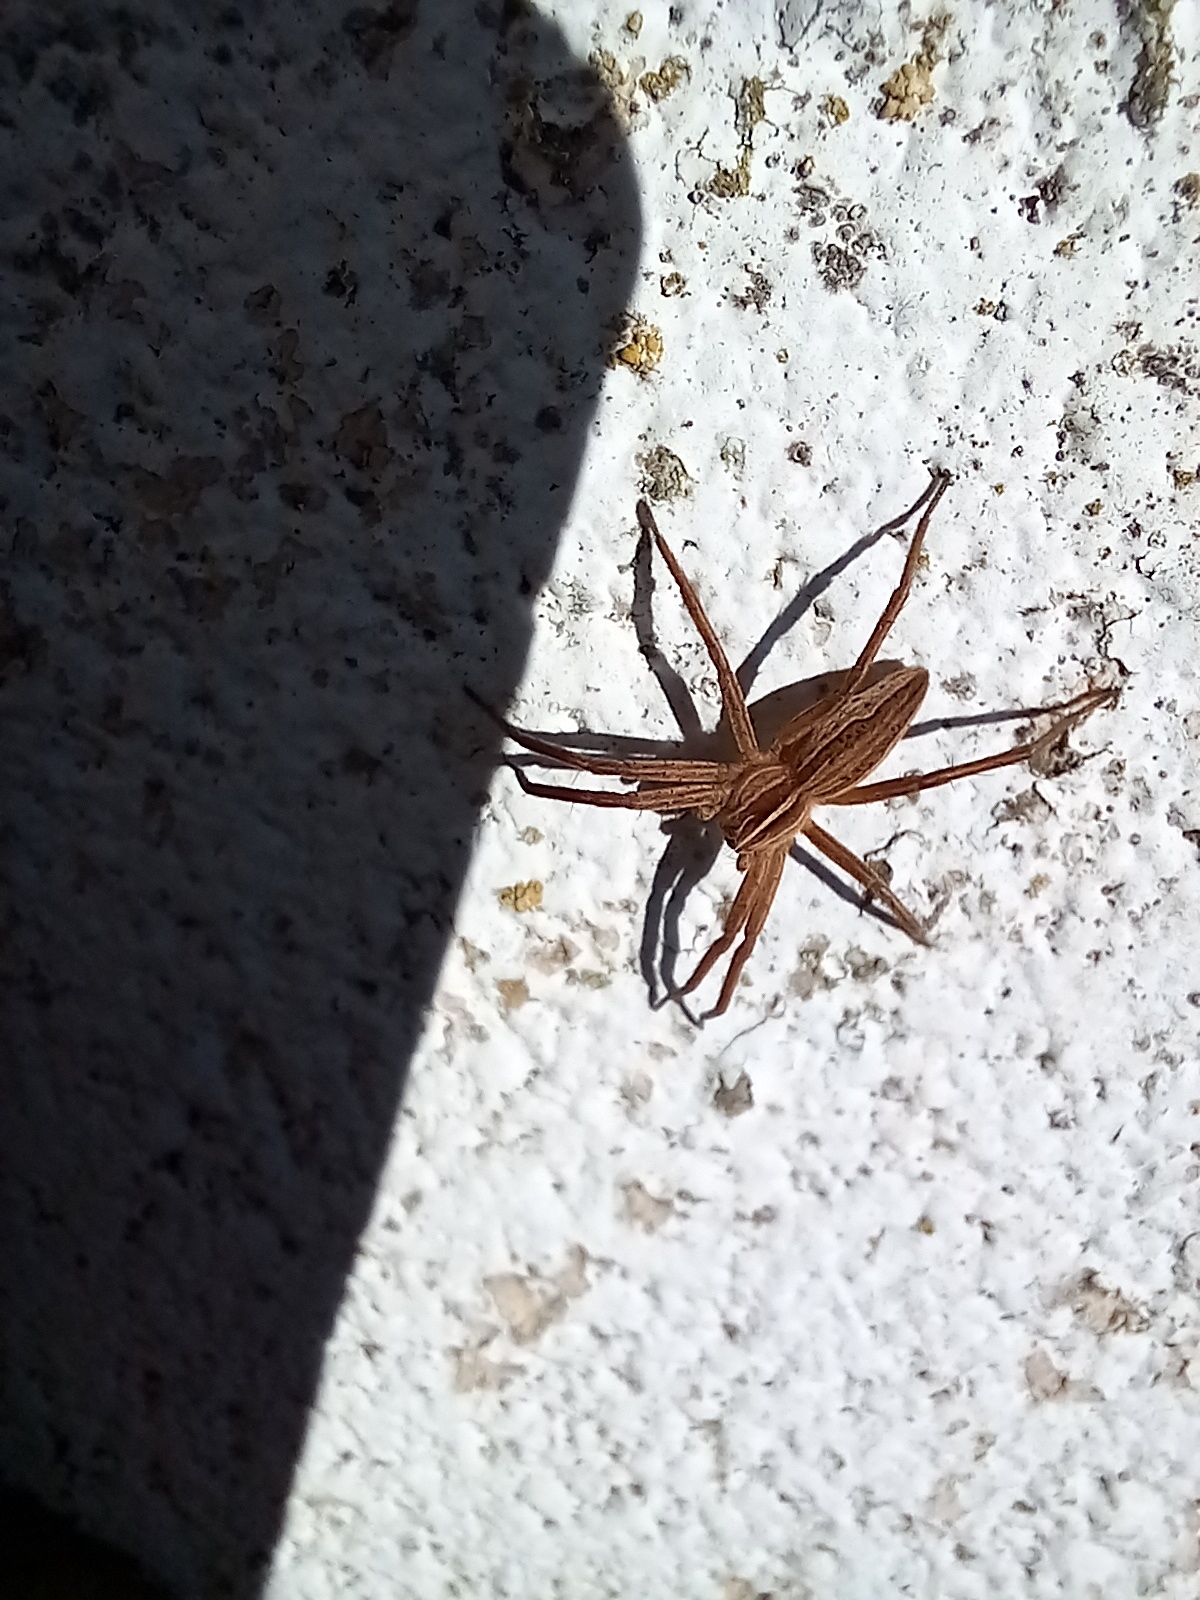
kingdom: Animalia
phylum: Arthropoda
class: Arachnida
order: Araneae
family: Pisauridae
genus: Pisaura
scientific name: Pisaura mirabilis
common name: Tent spider
